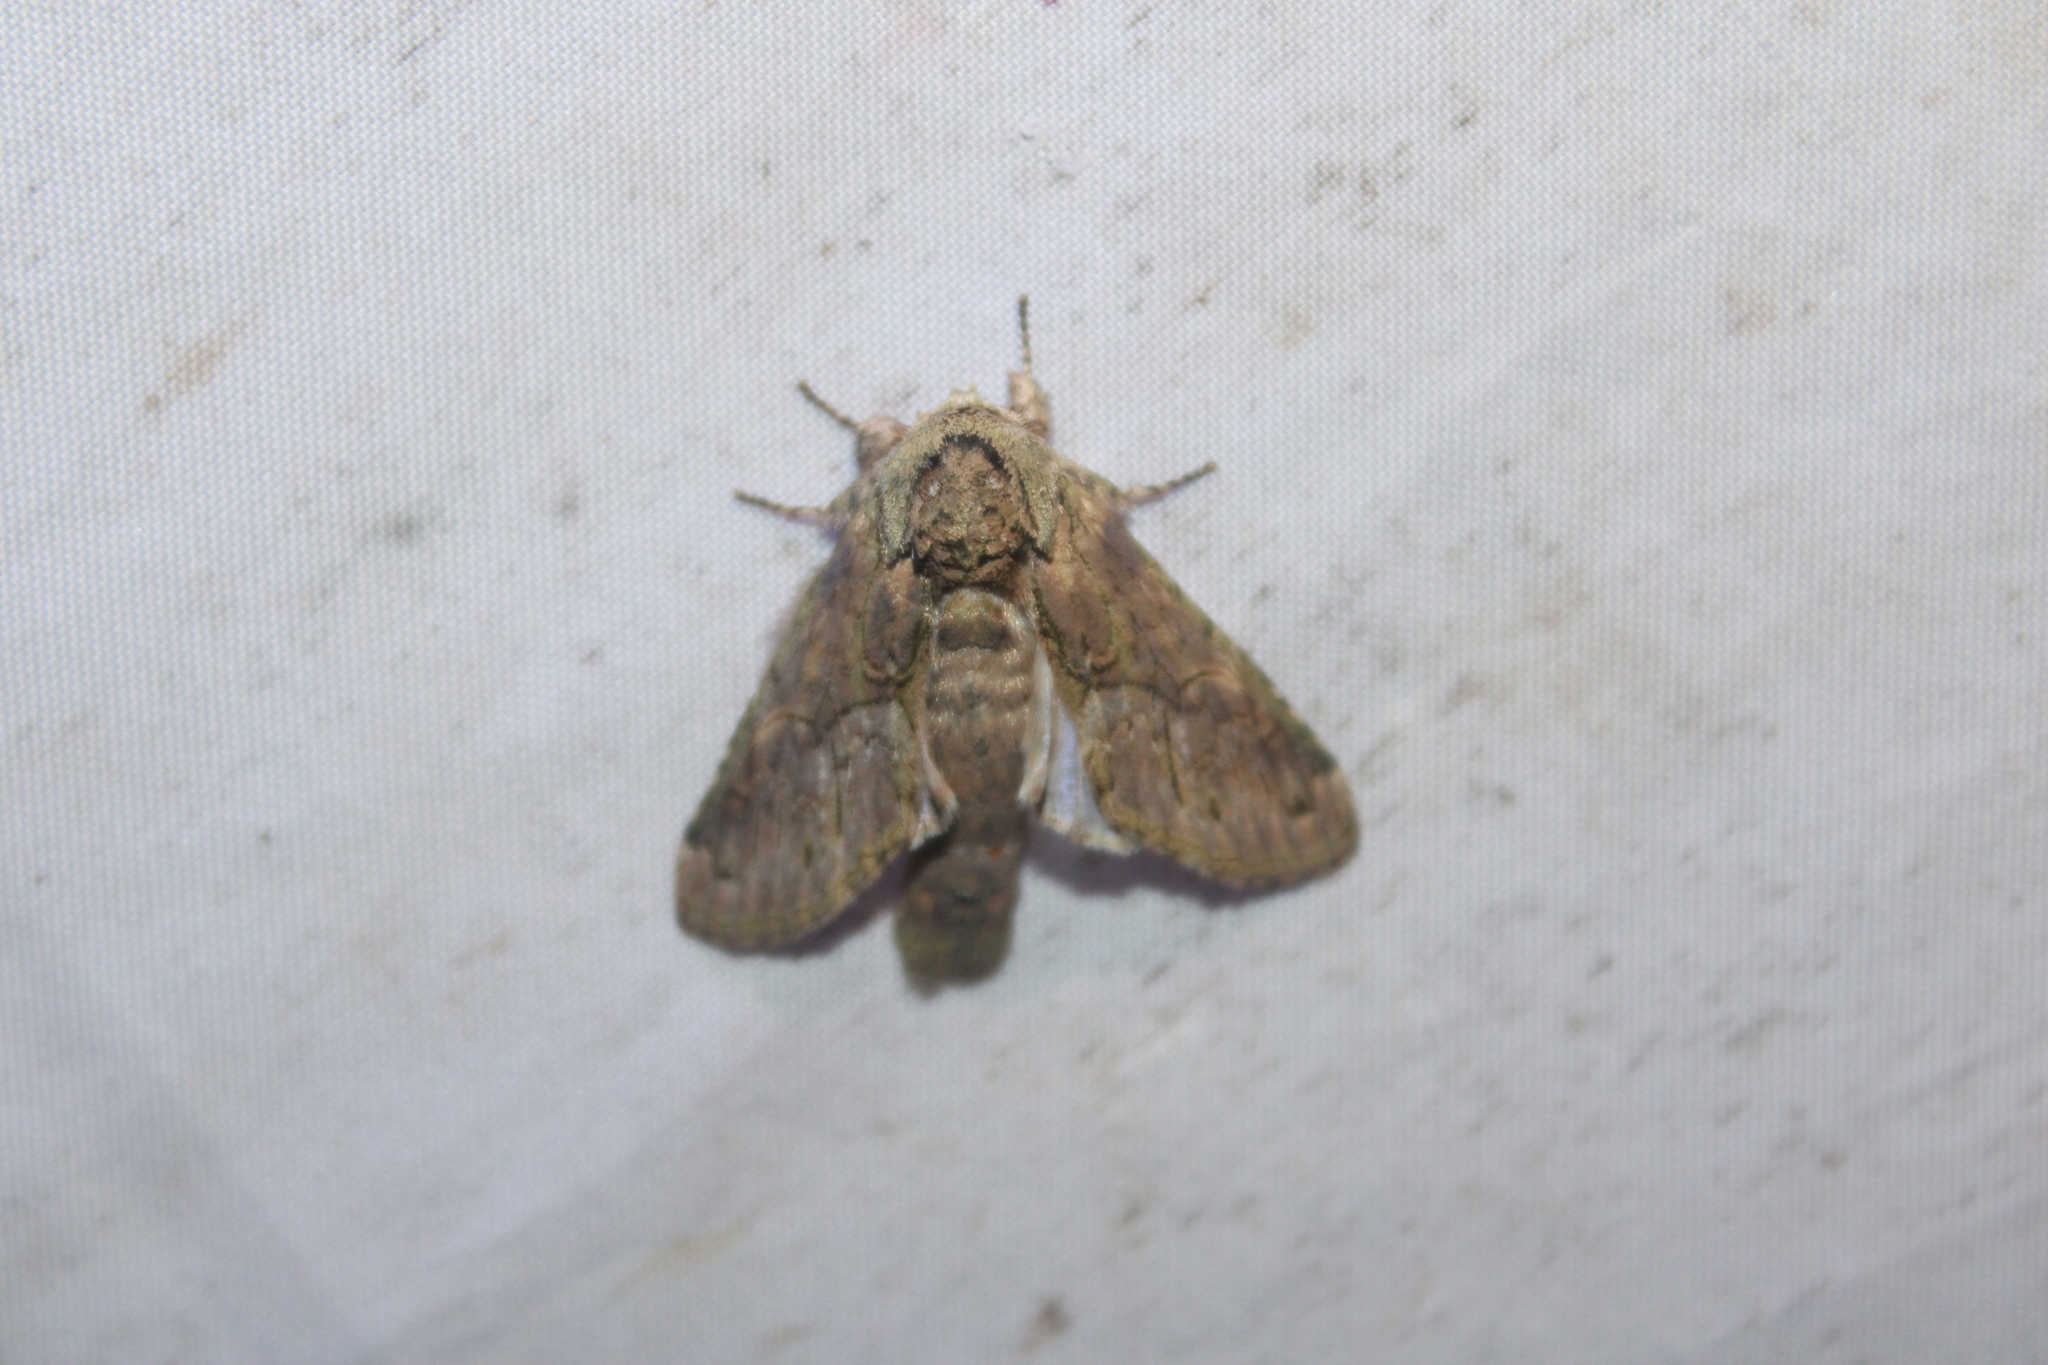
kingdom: Animalia
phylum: Arthropoda
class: Insecta
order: Lepidoptera
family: Notodontidae
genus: Disphragis
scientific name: Disphragis
